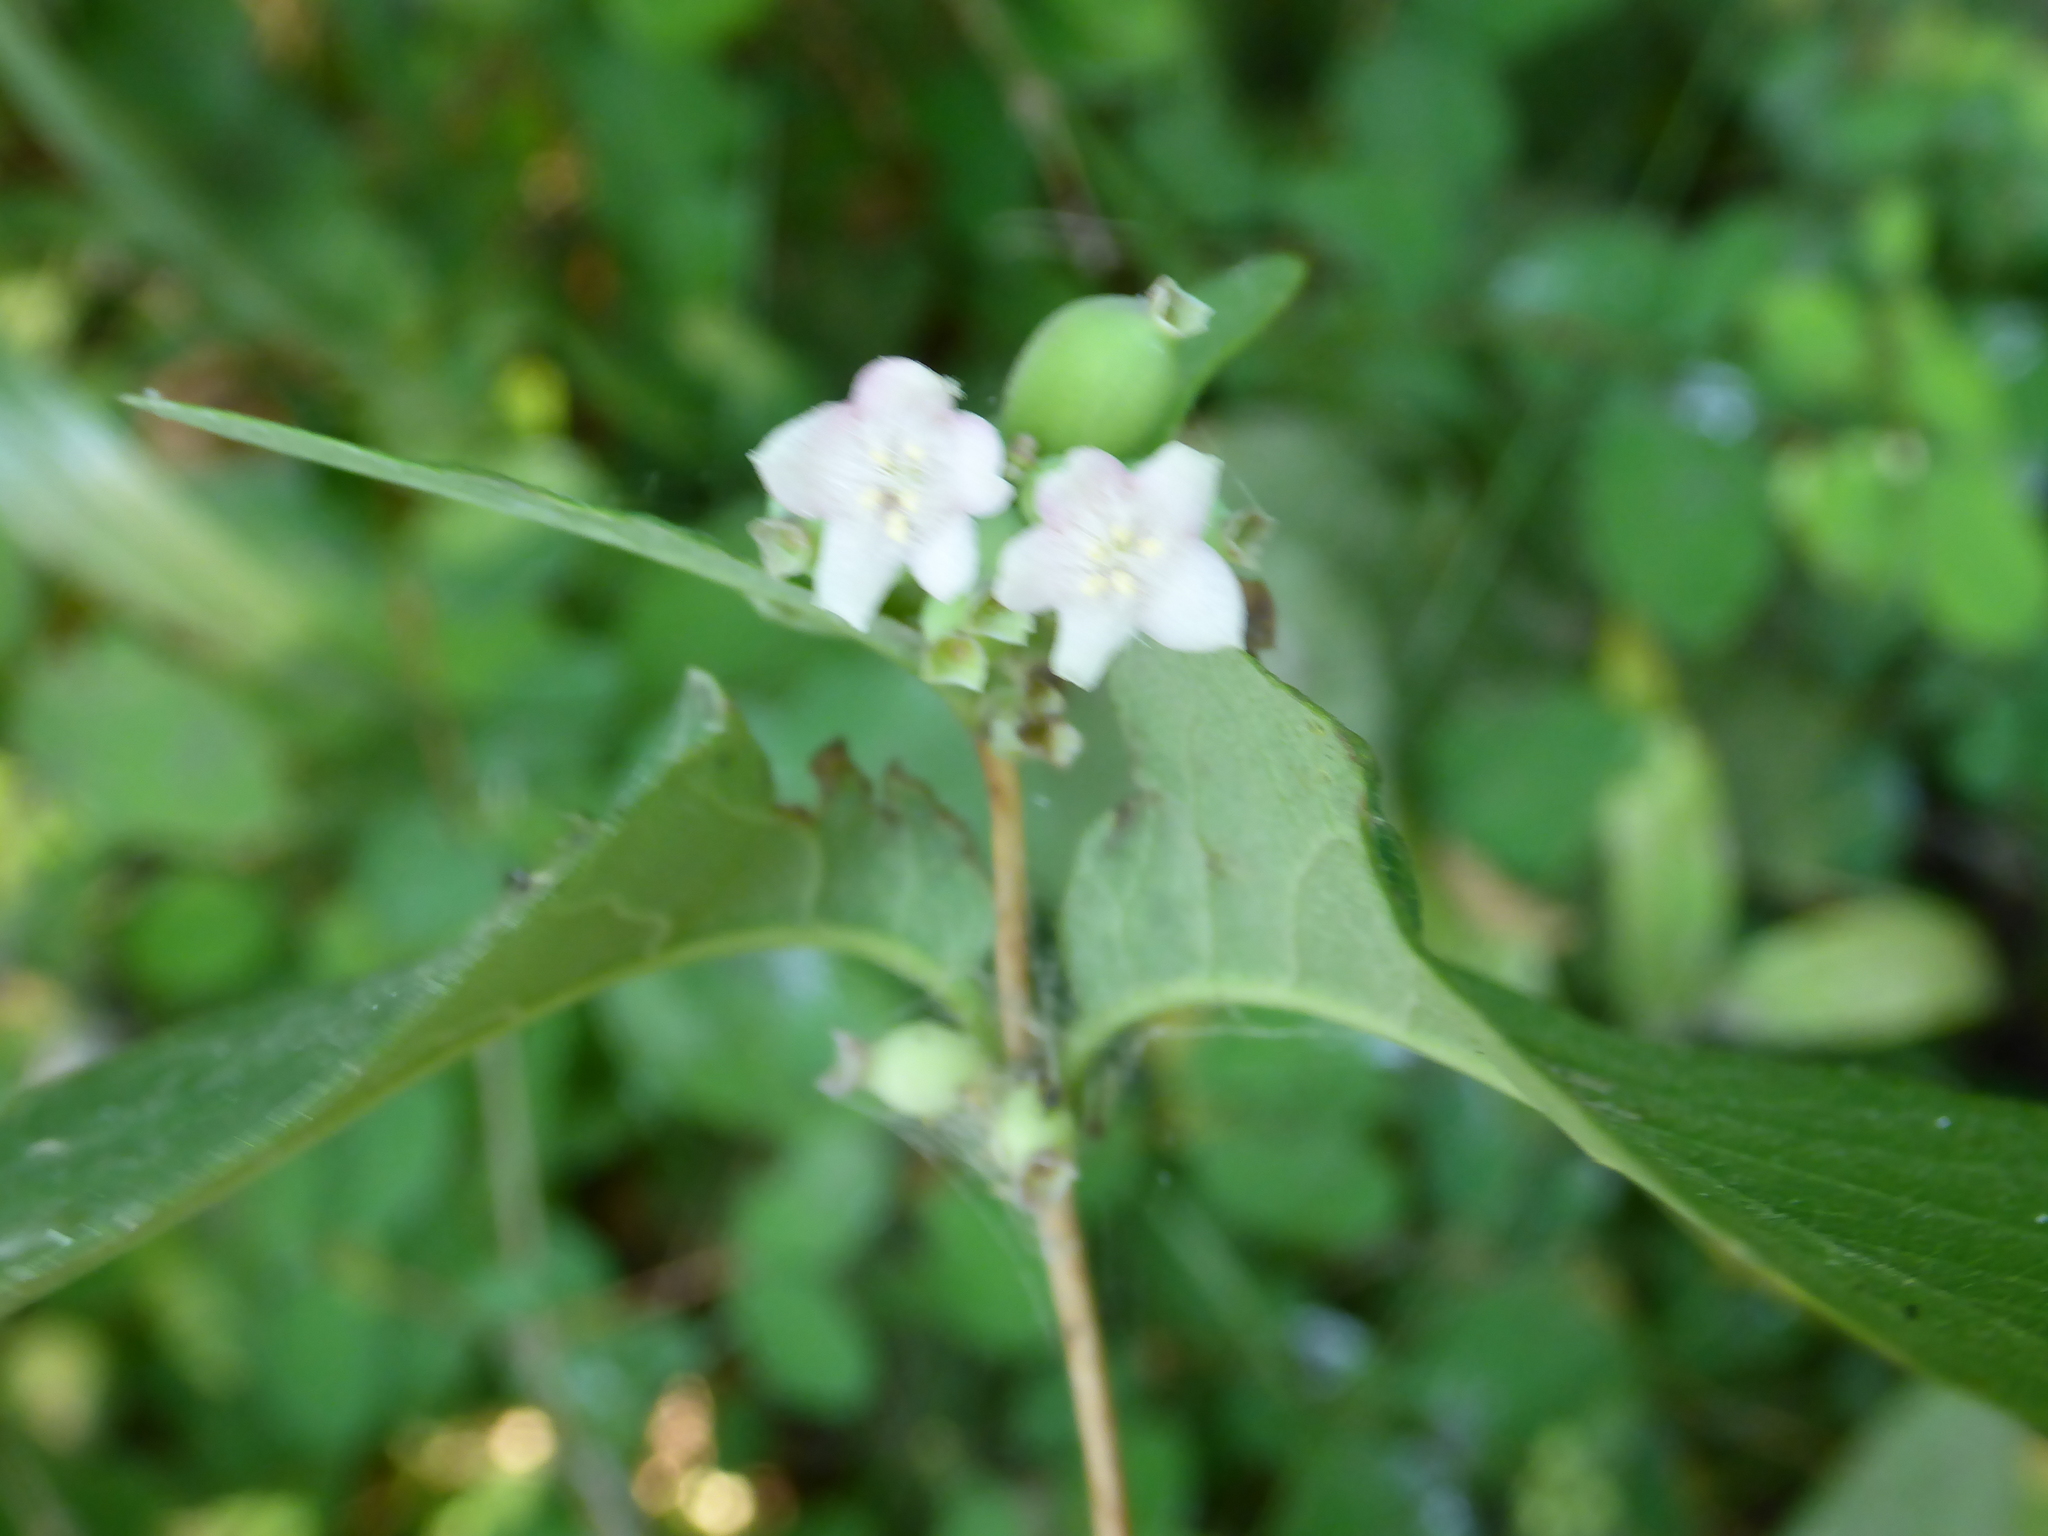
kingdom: Plantae
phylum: Tracheophyta
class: Magnoliopsida
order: Dipsacales
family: Caprifoliaceae
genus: Symphoricarpos
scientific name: Symphoricarpos albus
